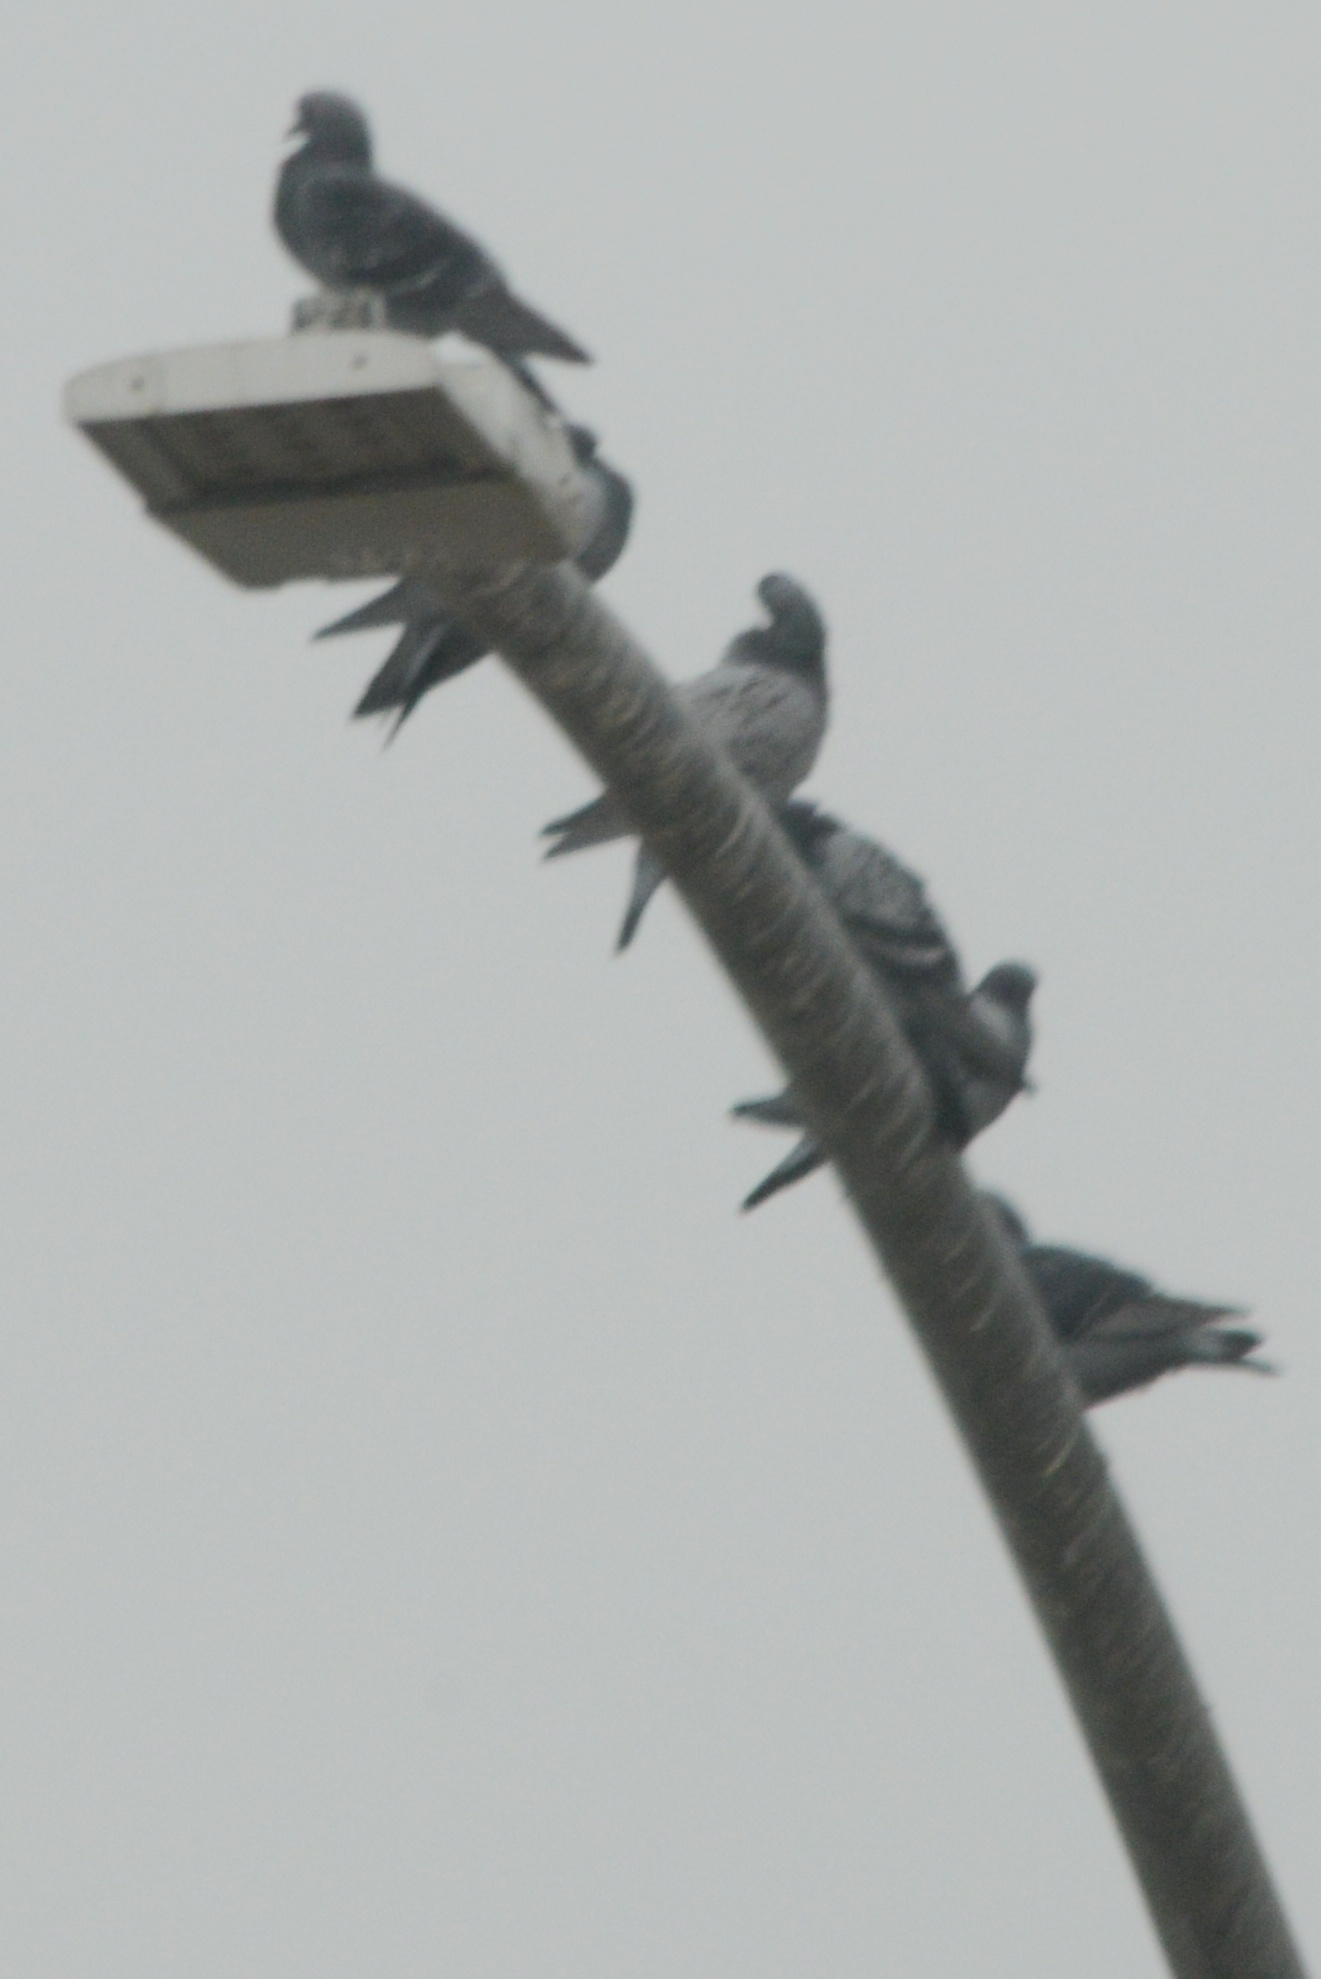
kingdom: Animalia
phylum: Chordata
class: Aves
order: Columbiformes
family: Columbidae
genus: Columba
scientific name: Columba livia
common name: Rock pigeon
